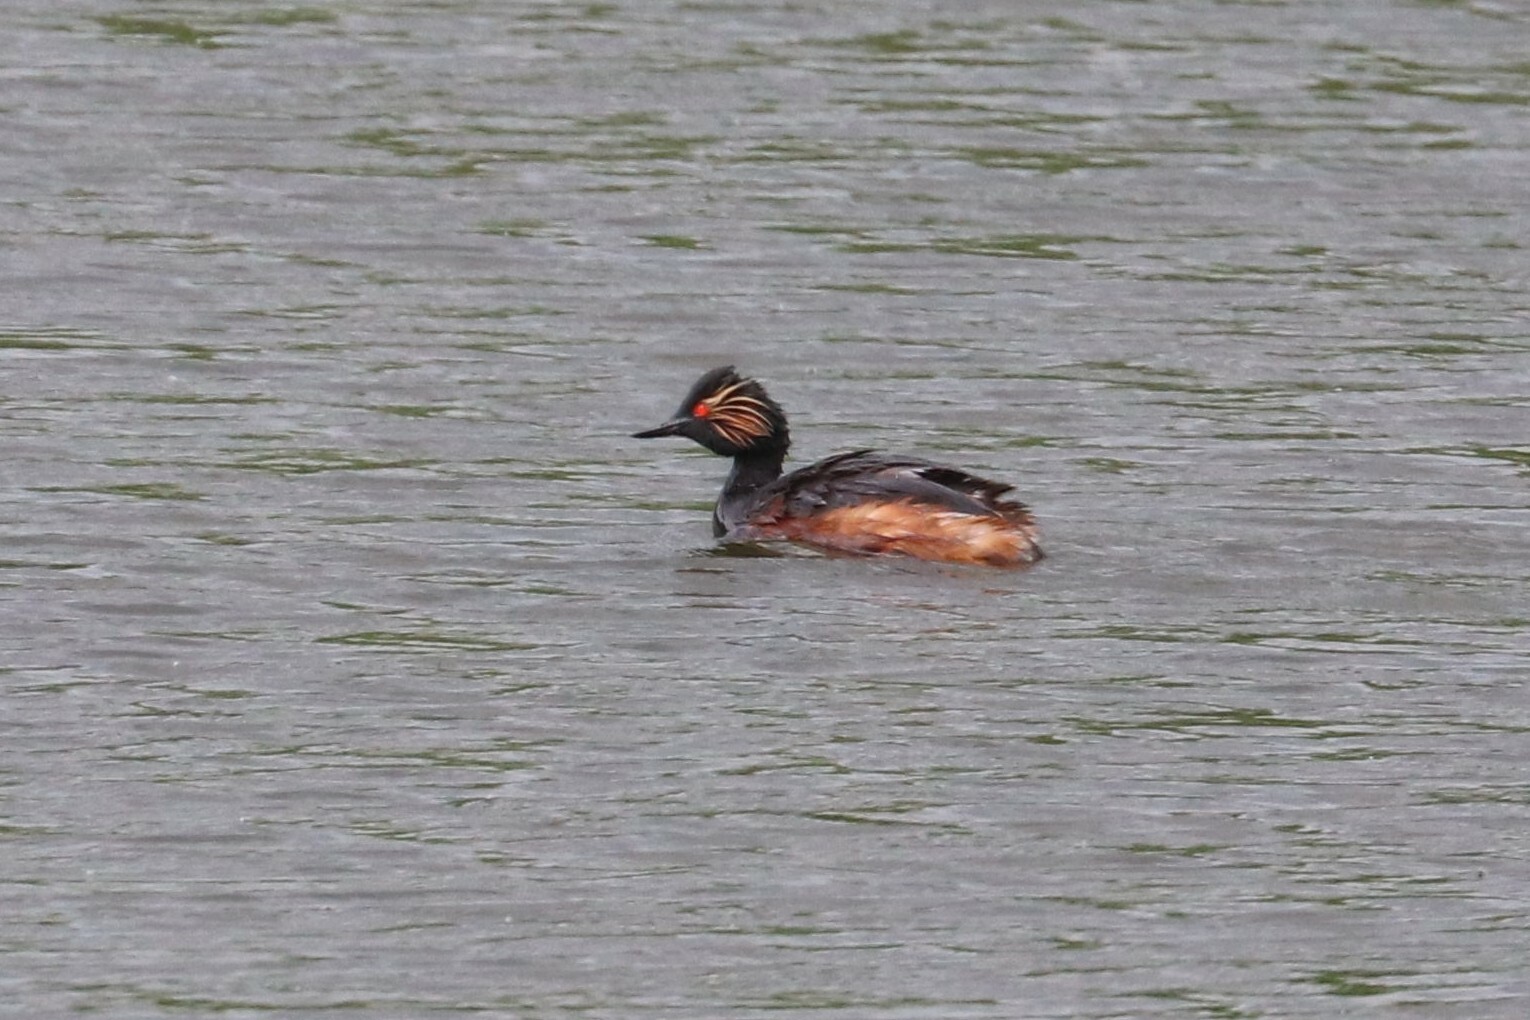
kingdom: Animalia
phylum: Chordata
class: Aves
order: Podicipediformes
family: Podicipedidae
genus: Podiceps
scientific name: Podiceps nigricollis
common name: Black-necked grebe
